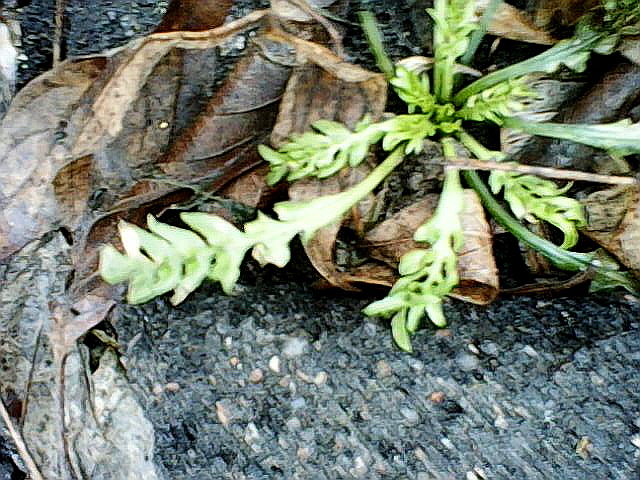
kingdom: Plantae
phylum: Tracheophyta
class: Magnoliopsida
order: Brassicales
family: Brassicaceae
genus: Capsella
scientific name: Capsella bursa-pastoris
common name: Shepherd's purse
